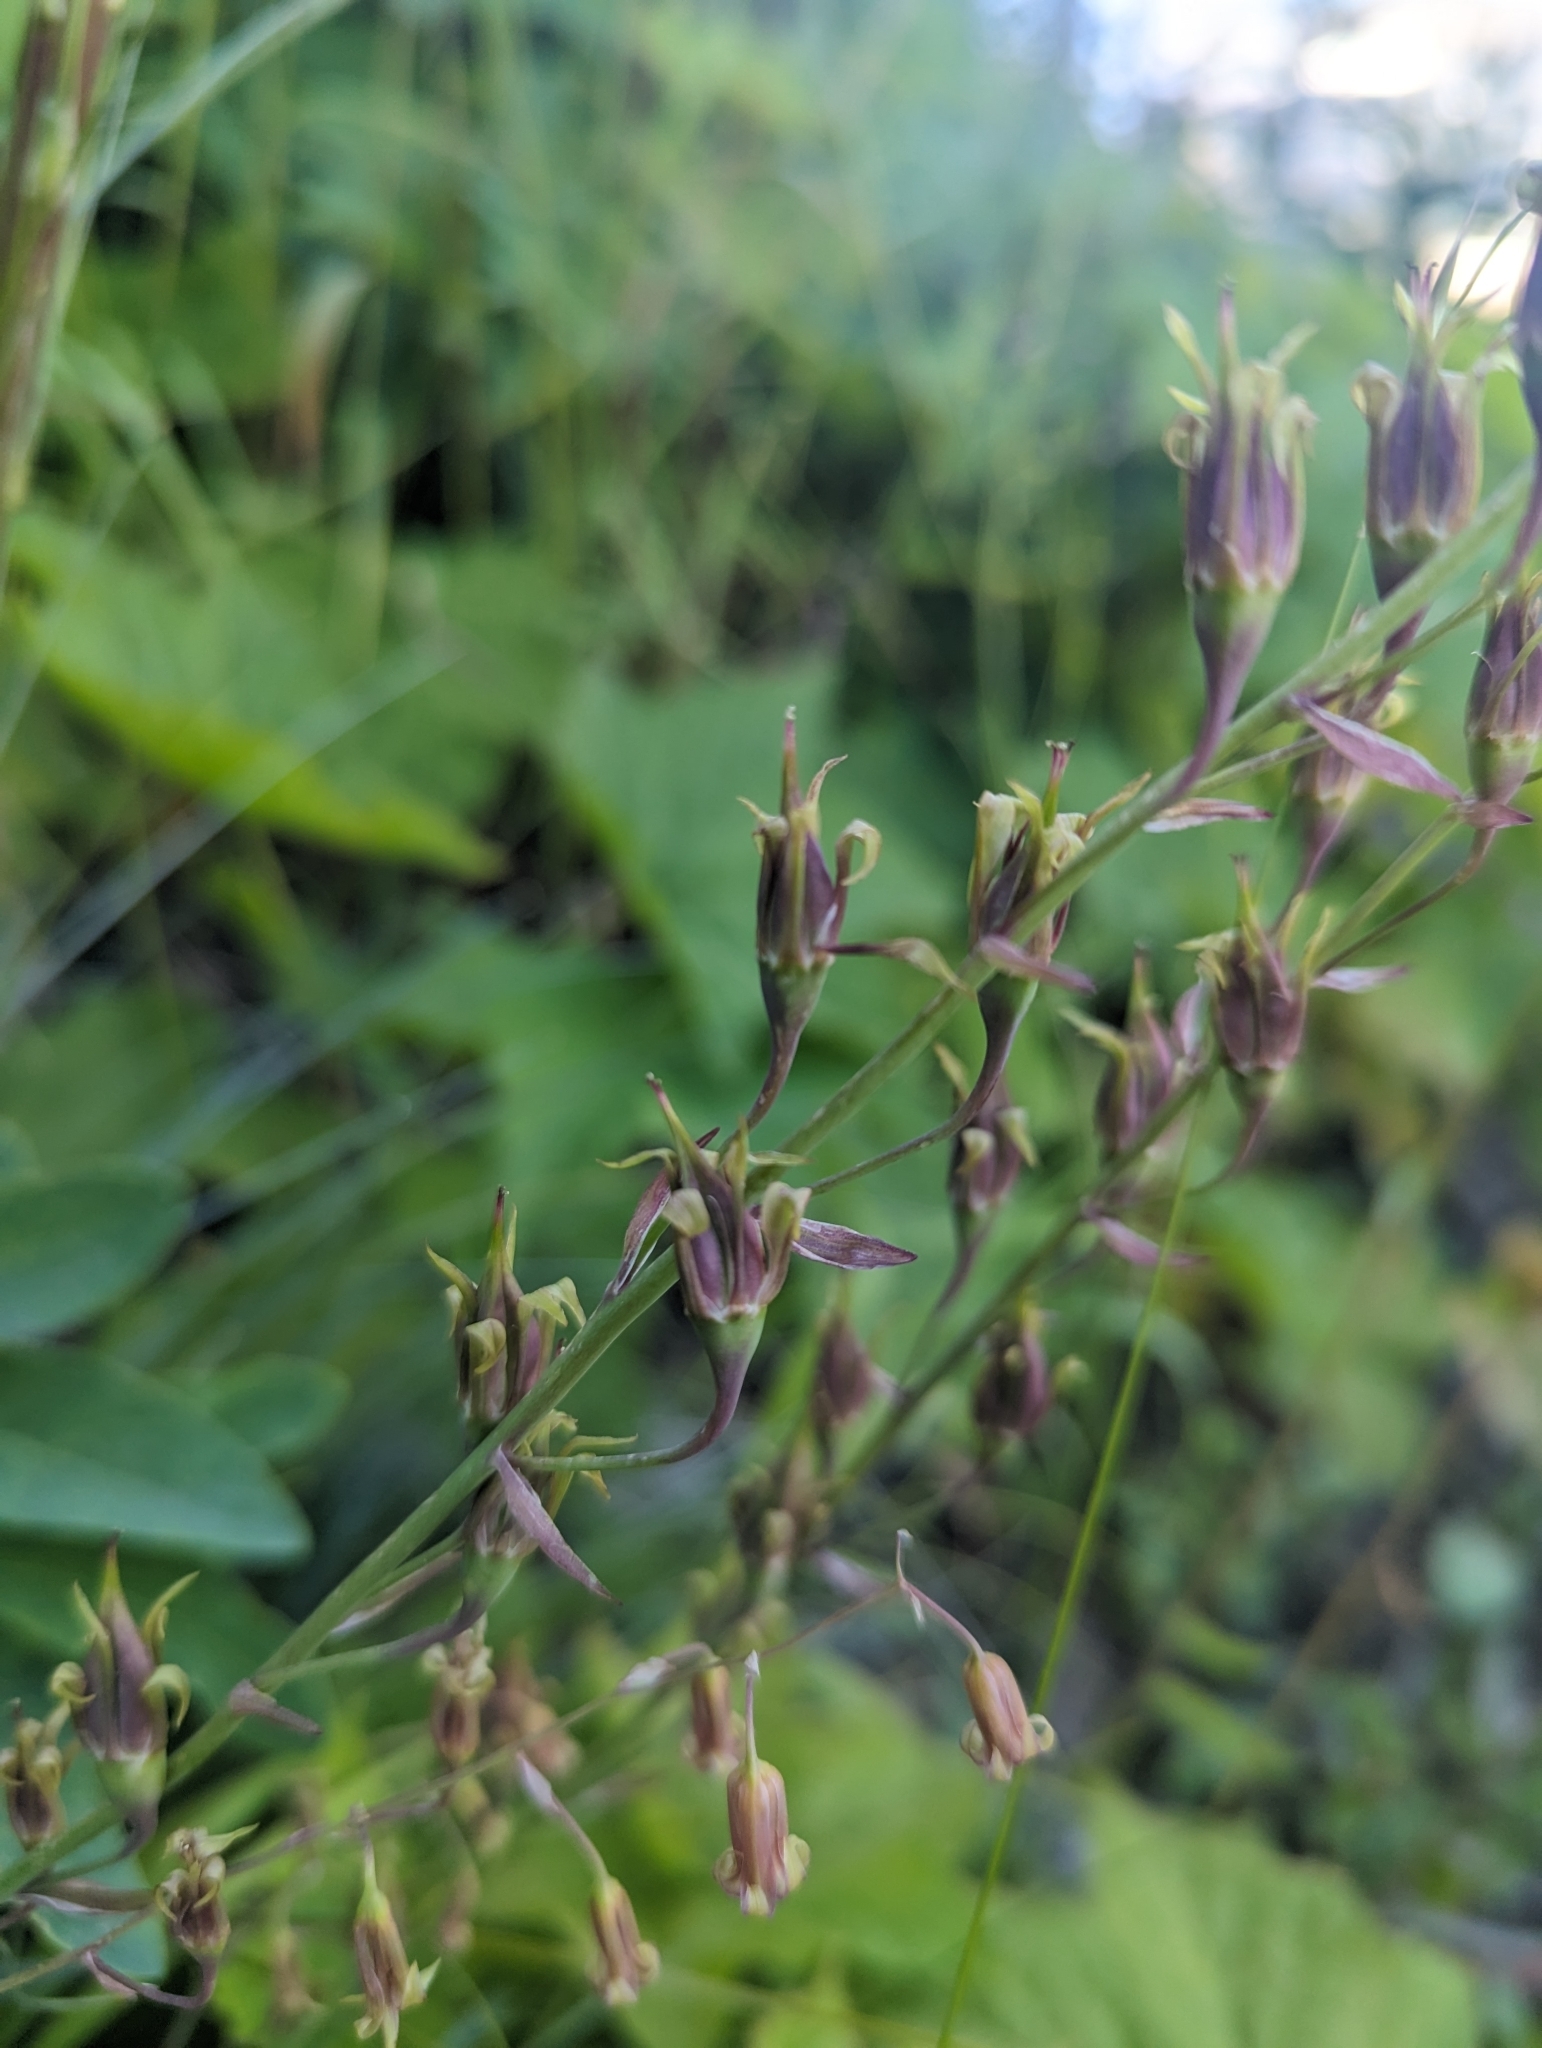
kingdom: Plantae
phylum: Tracheophyta
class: Liliopsida
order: Liliales
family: Melanthiaceae
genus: Anticlea
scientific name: Anticlea occidentalis
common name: Bronze-bells
